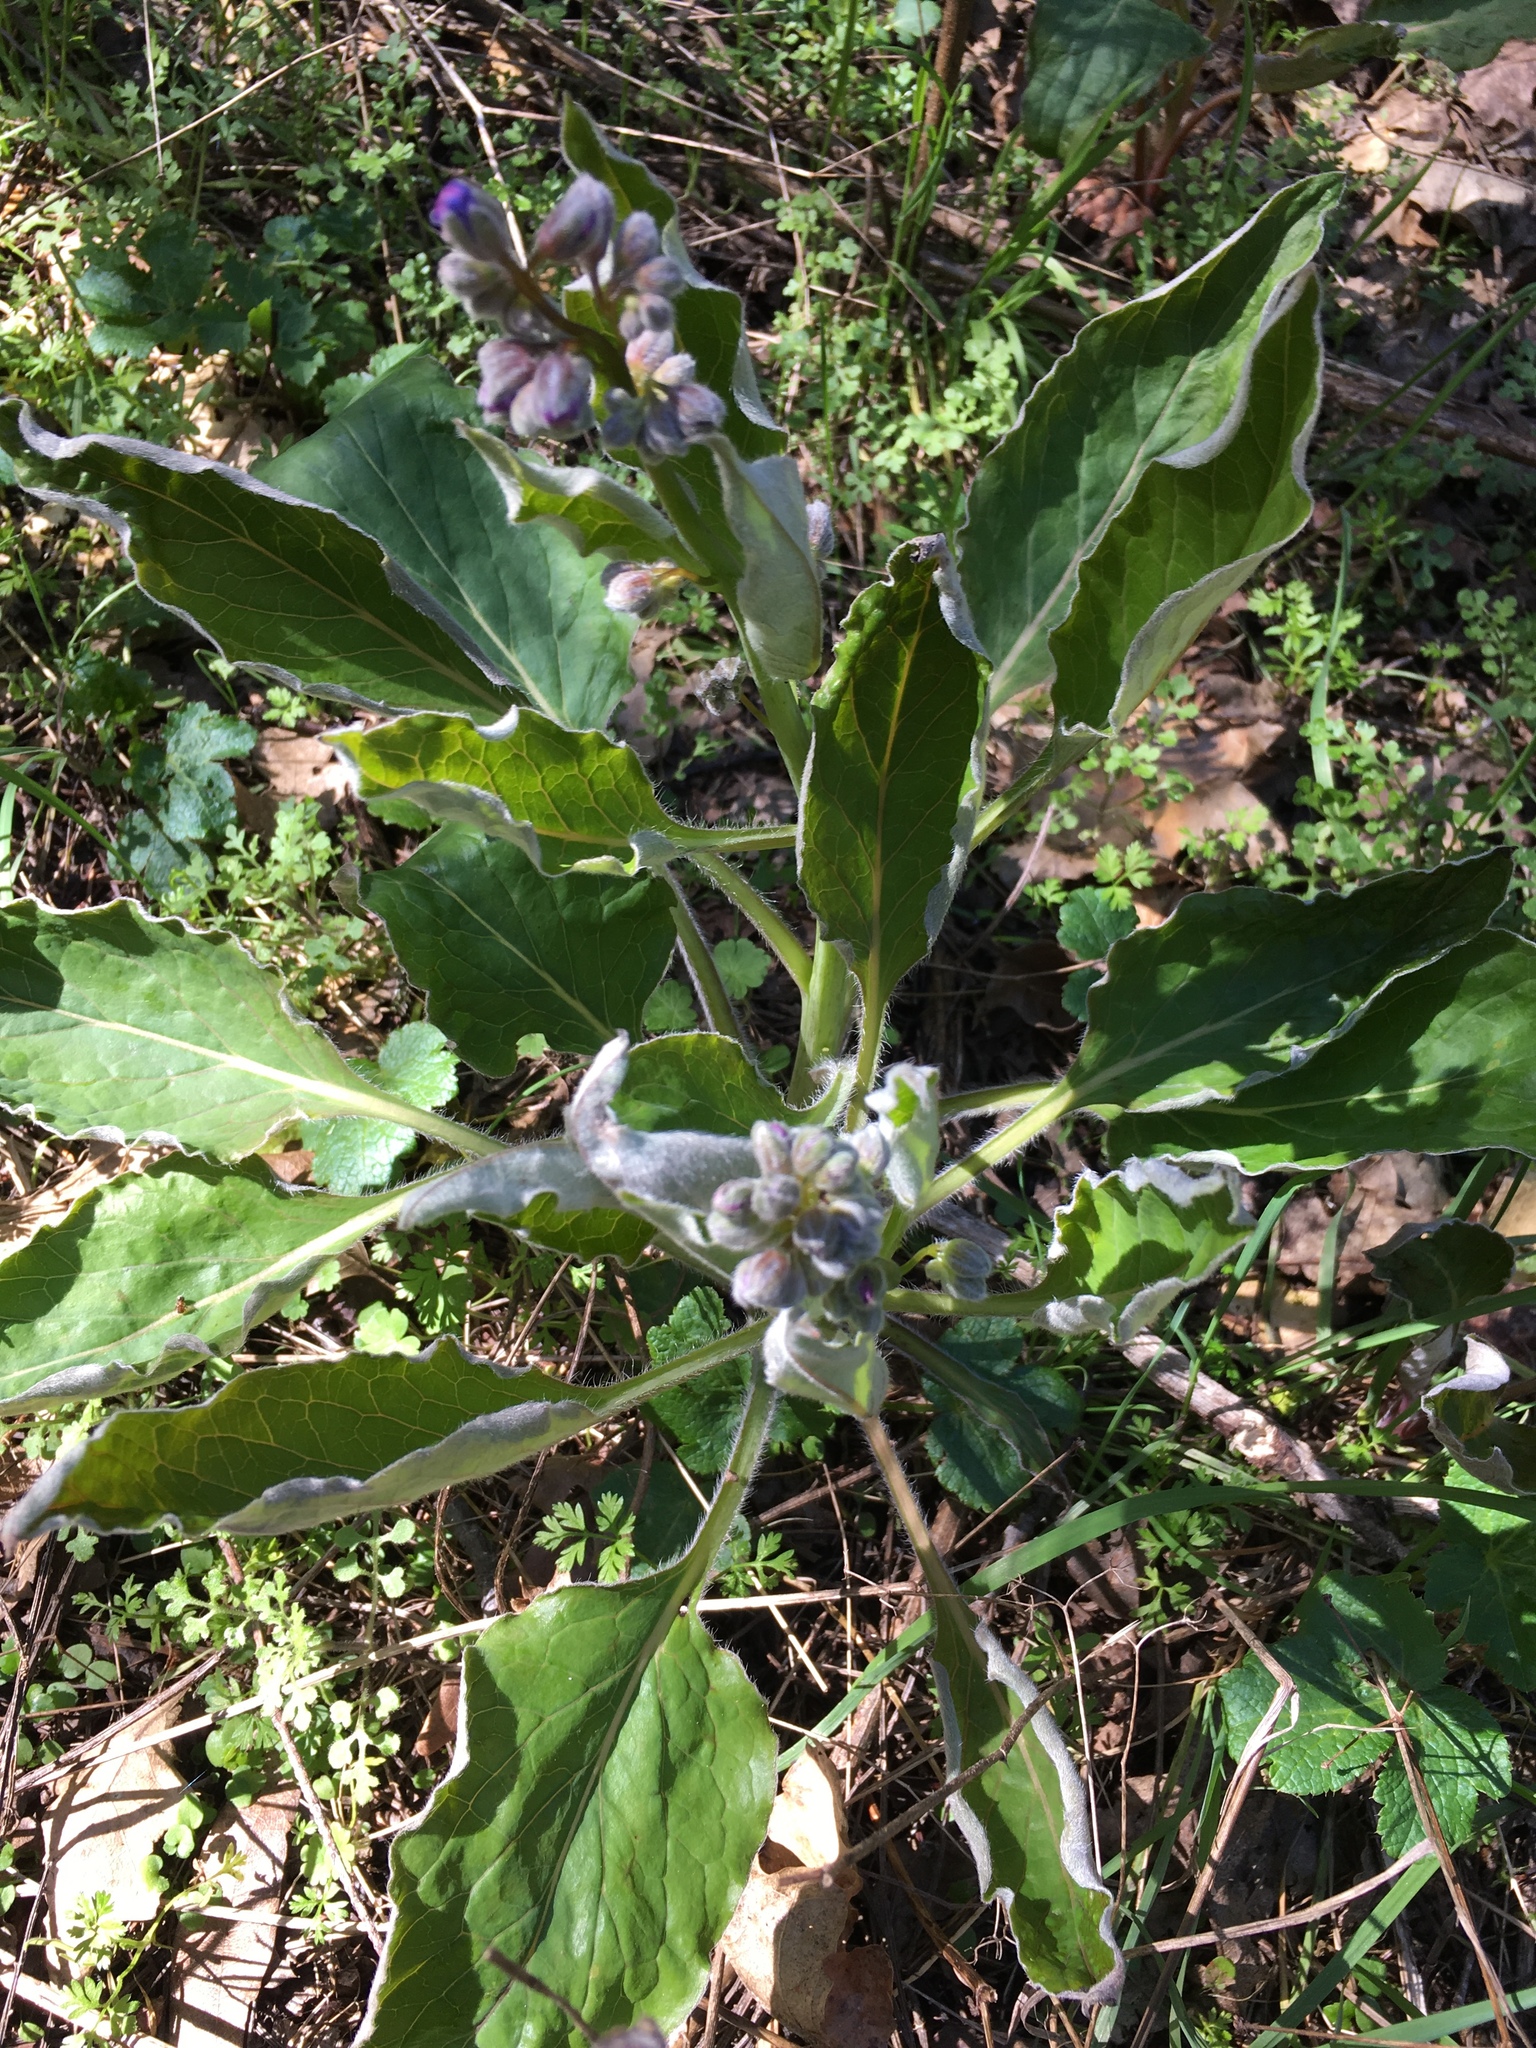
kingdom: Plantae
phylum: Tracheophyta
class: Magnoliopsida
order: Boraginales
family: Boraginaceae
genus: Adelinia
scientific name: Adelinia grande
